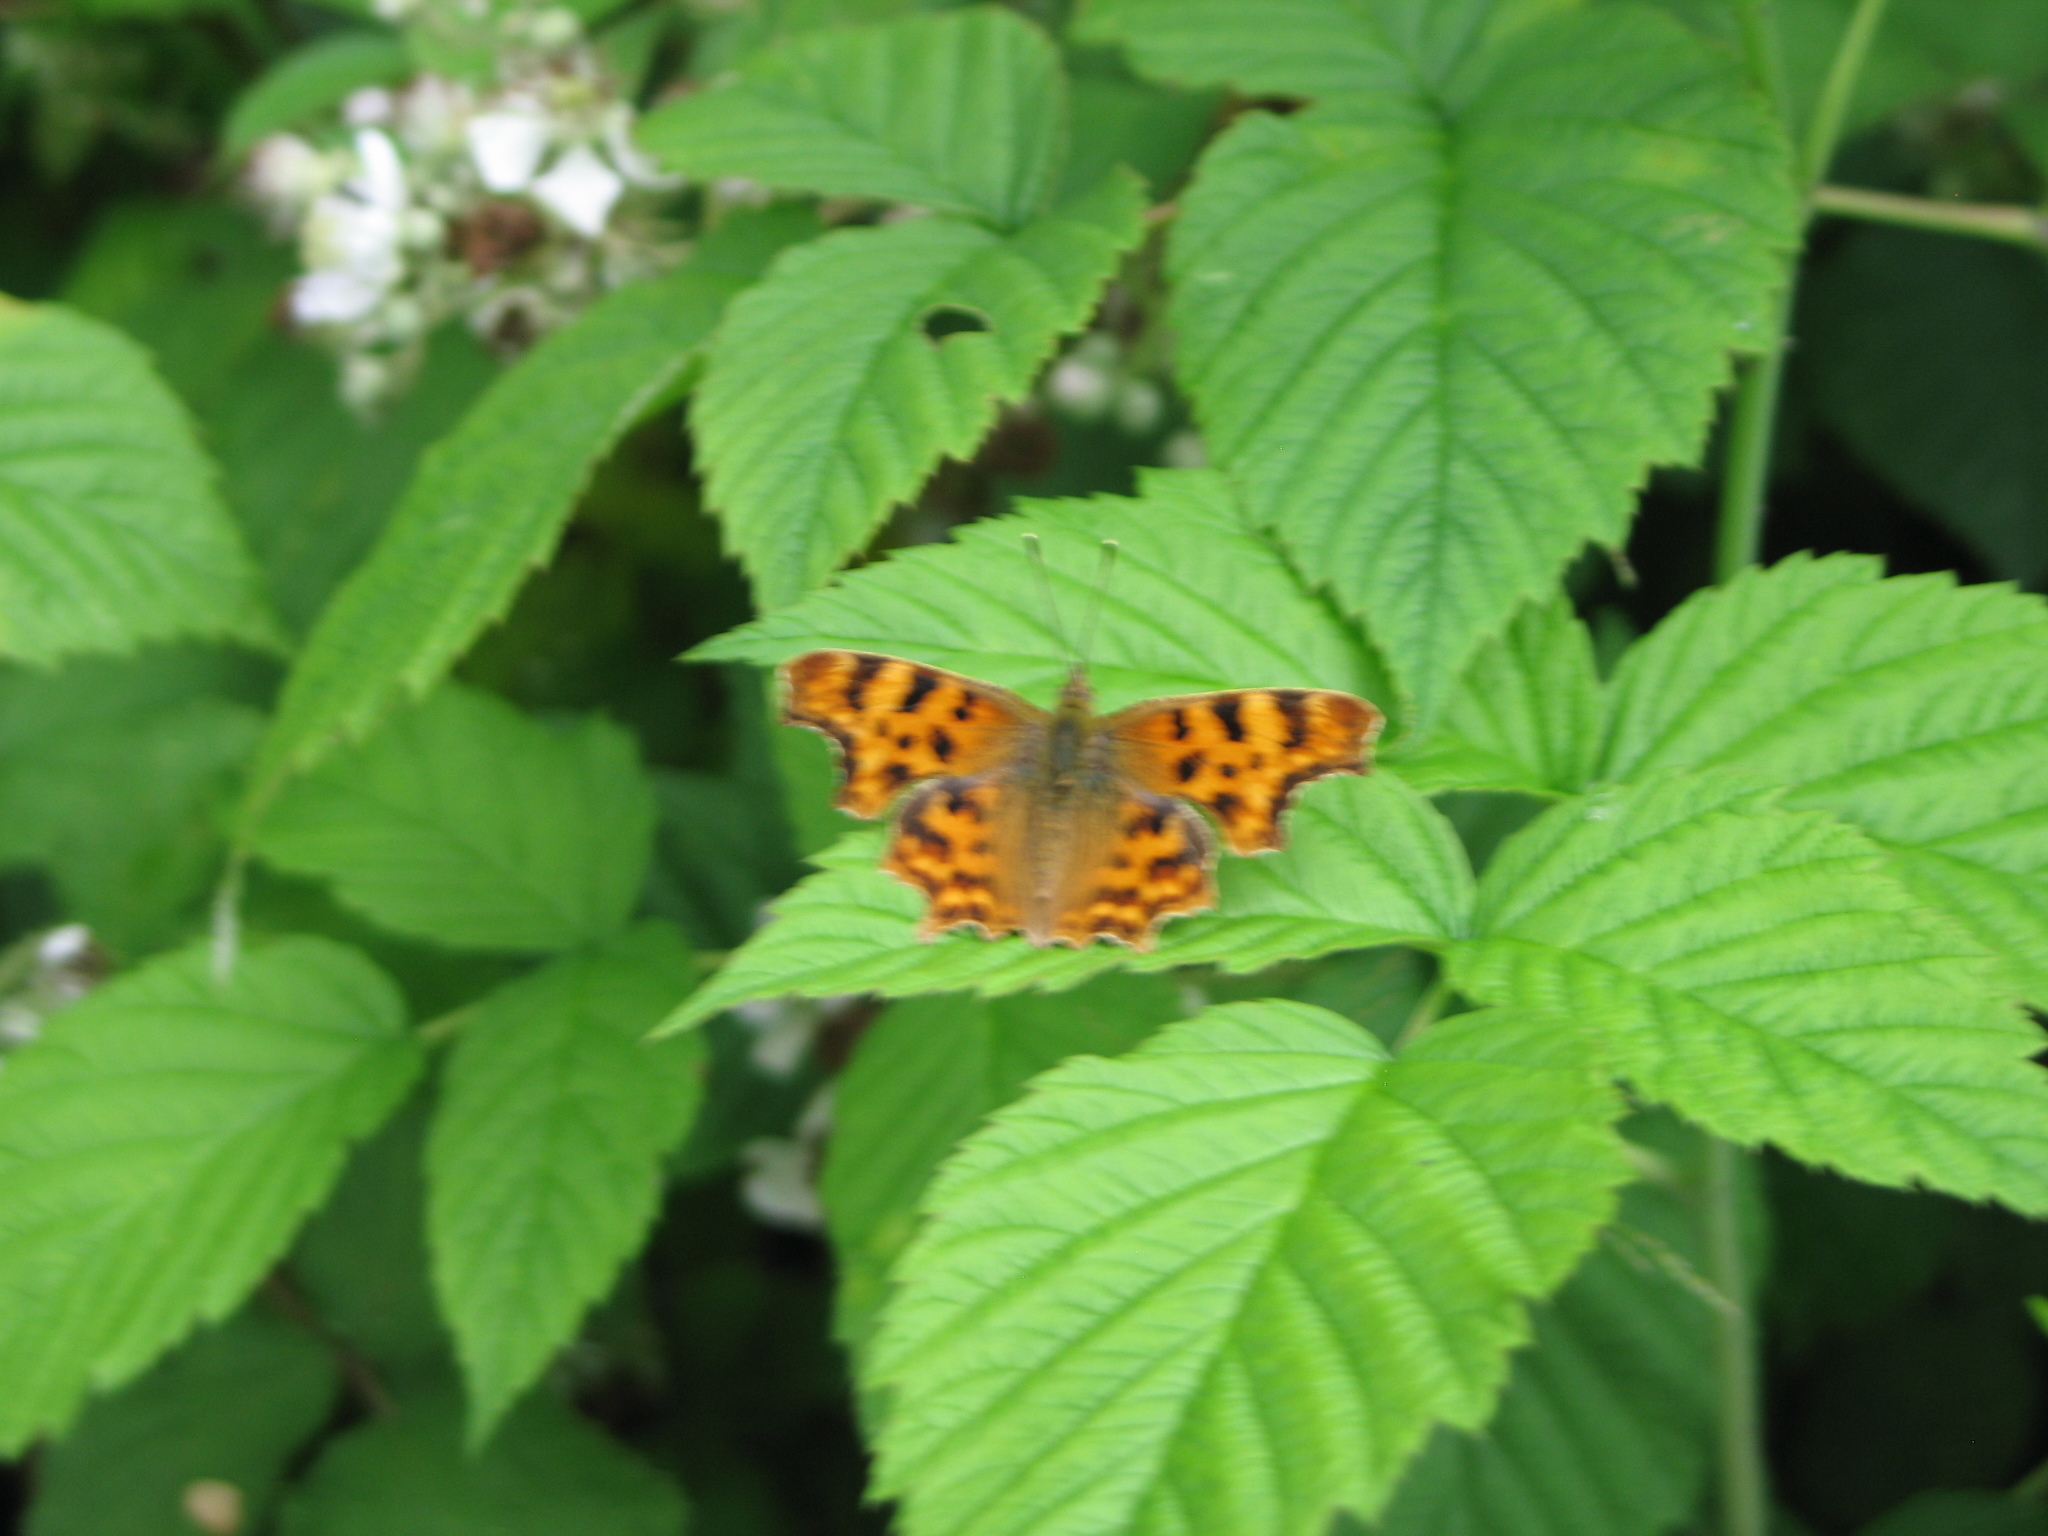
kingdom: Animalia
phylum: Arthropoda
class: Insecta
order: Lepidoptera
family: Nymphalidae
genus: Polygonia
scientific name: Polygonia c-album
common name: Comma
